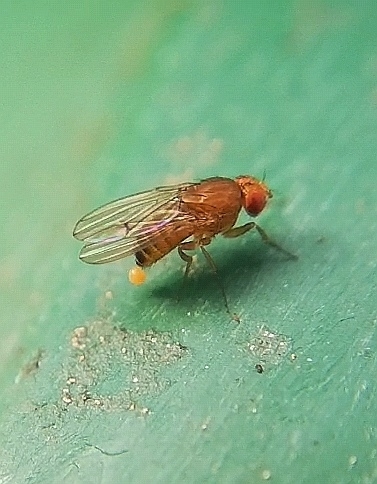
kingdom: Animalia
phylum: Arthropoda
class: Insecta
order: Diptera
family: Drosophilidae
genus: Drosophila
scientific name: Drosophila immigrans
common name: Pomace fly
